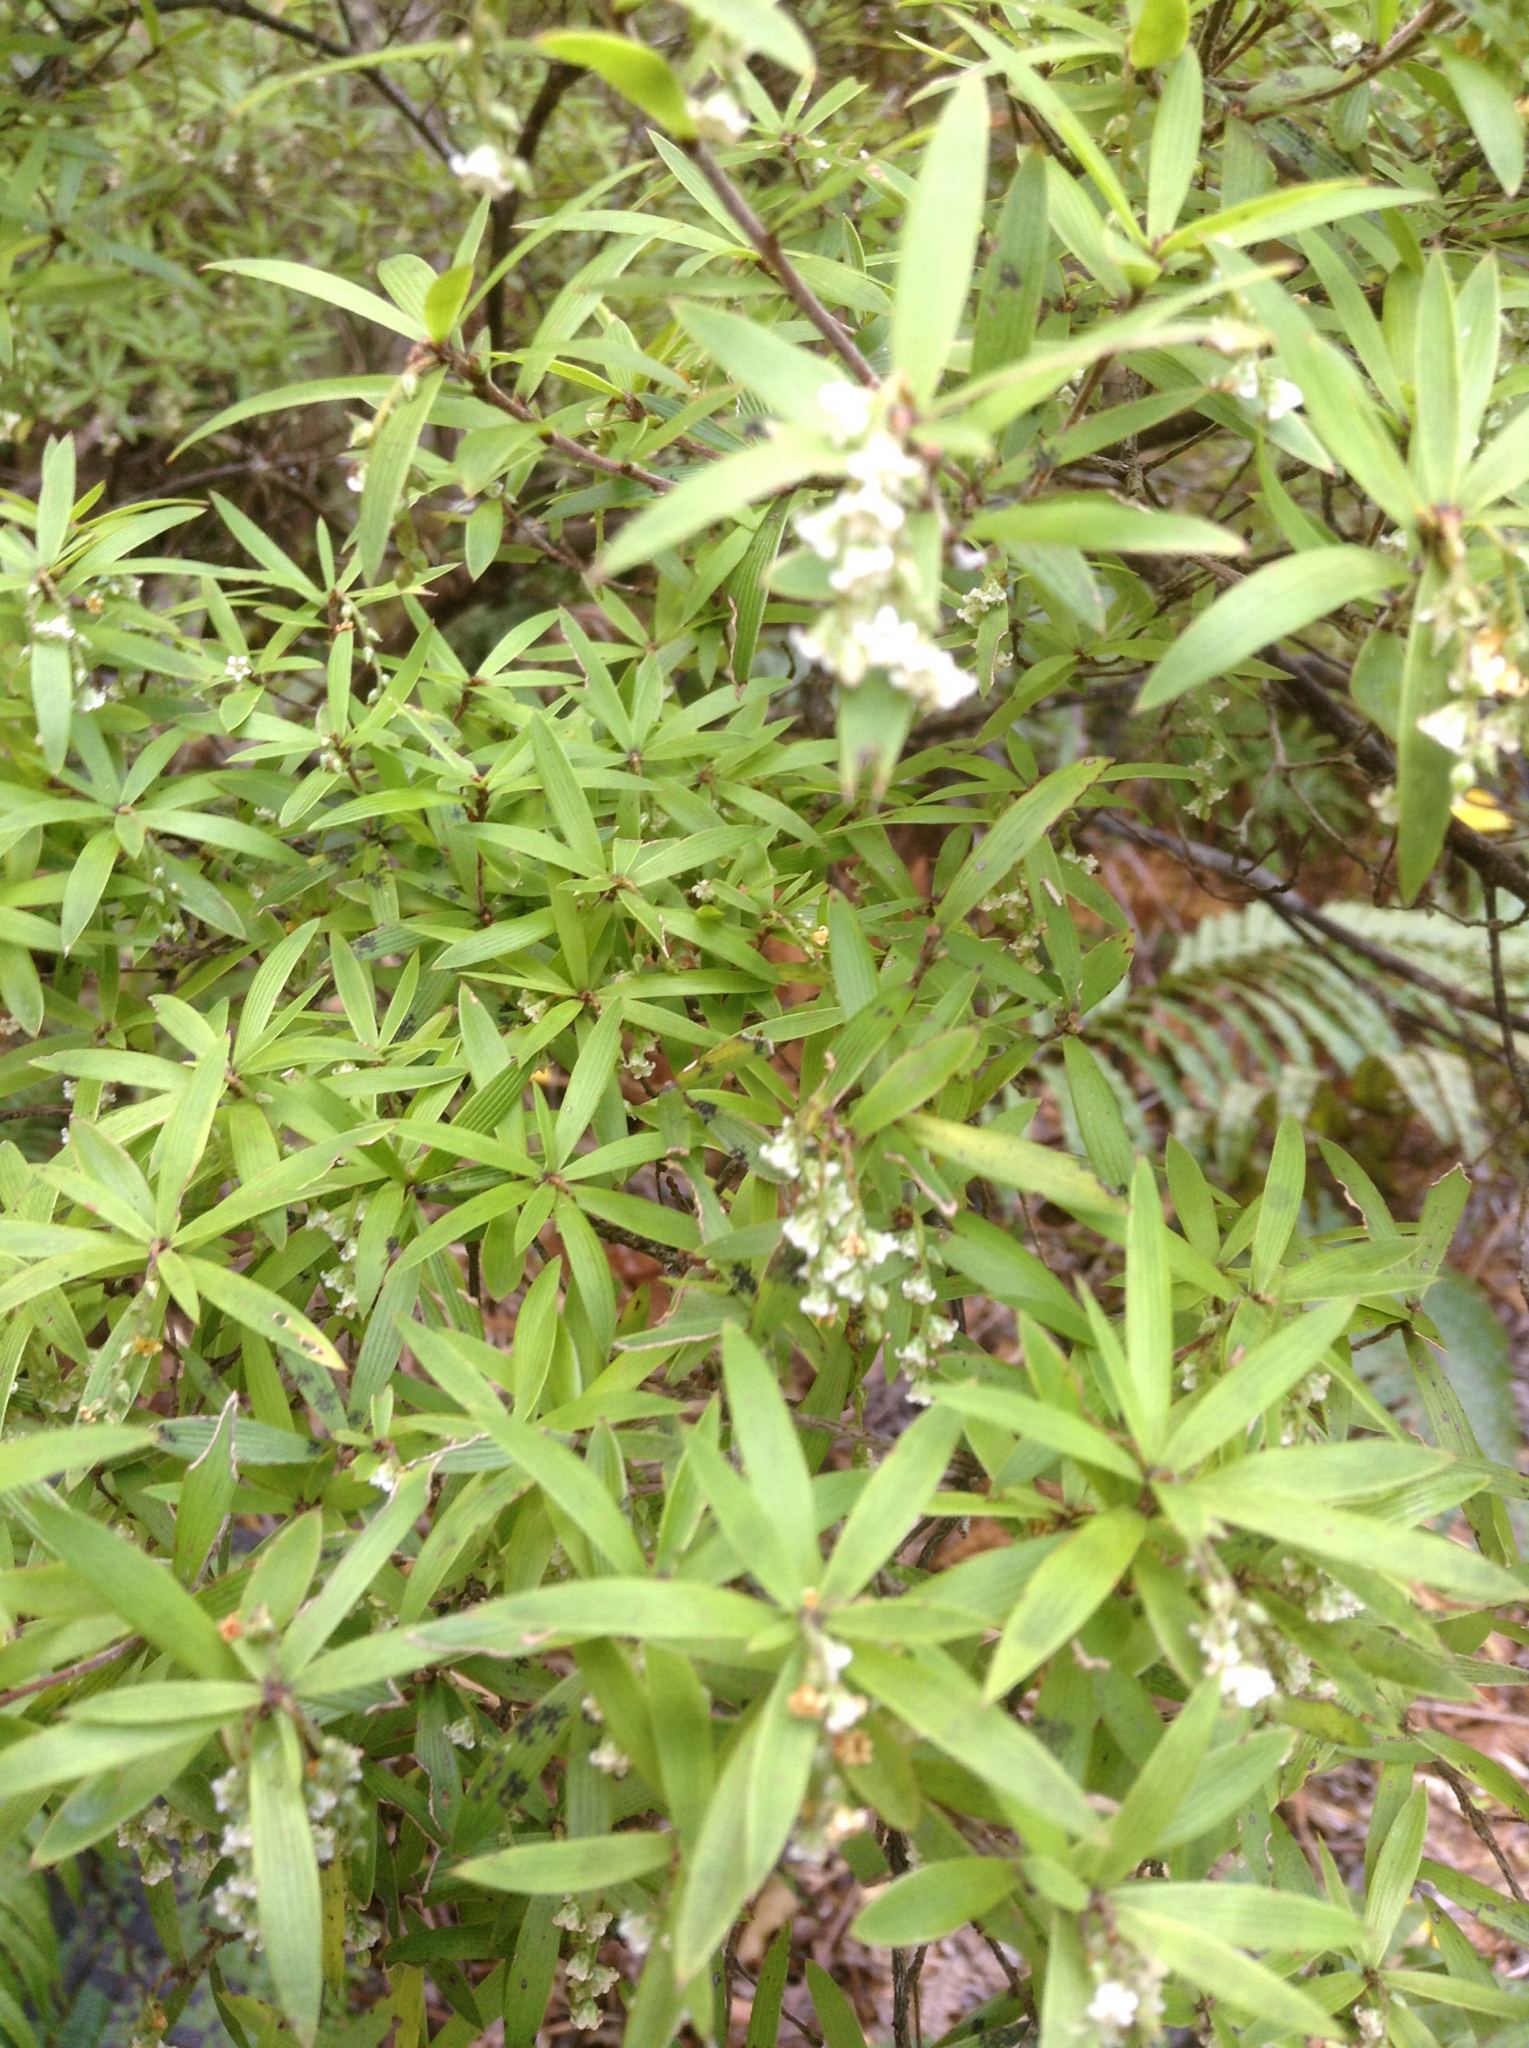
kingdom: Plantae
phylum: Tracheophyta
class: Magnoliopsida
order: Ericales
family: Ericaceae
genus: Leucopogon
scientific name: Leucopogon fasciculatus
